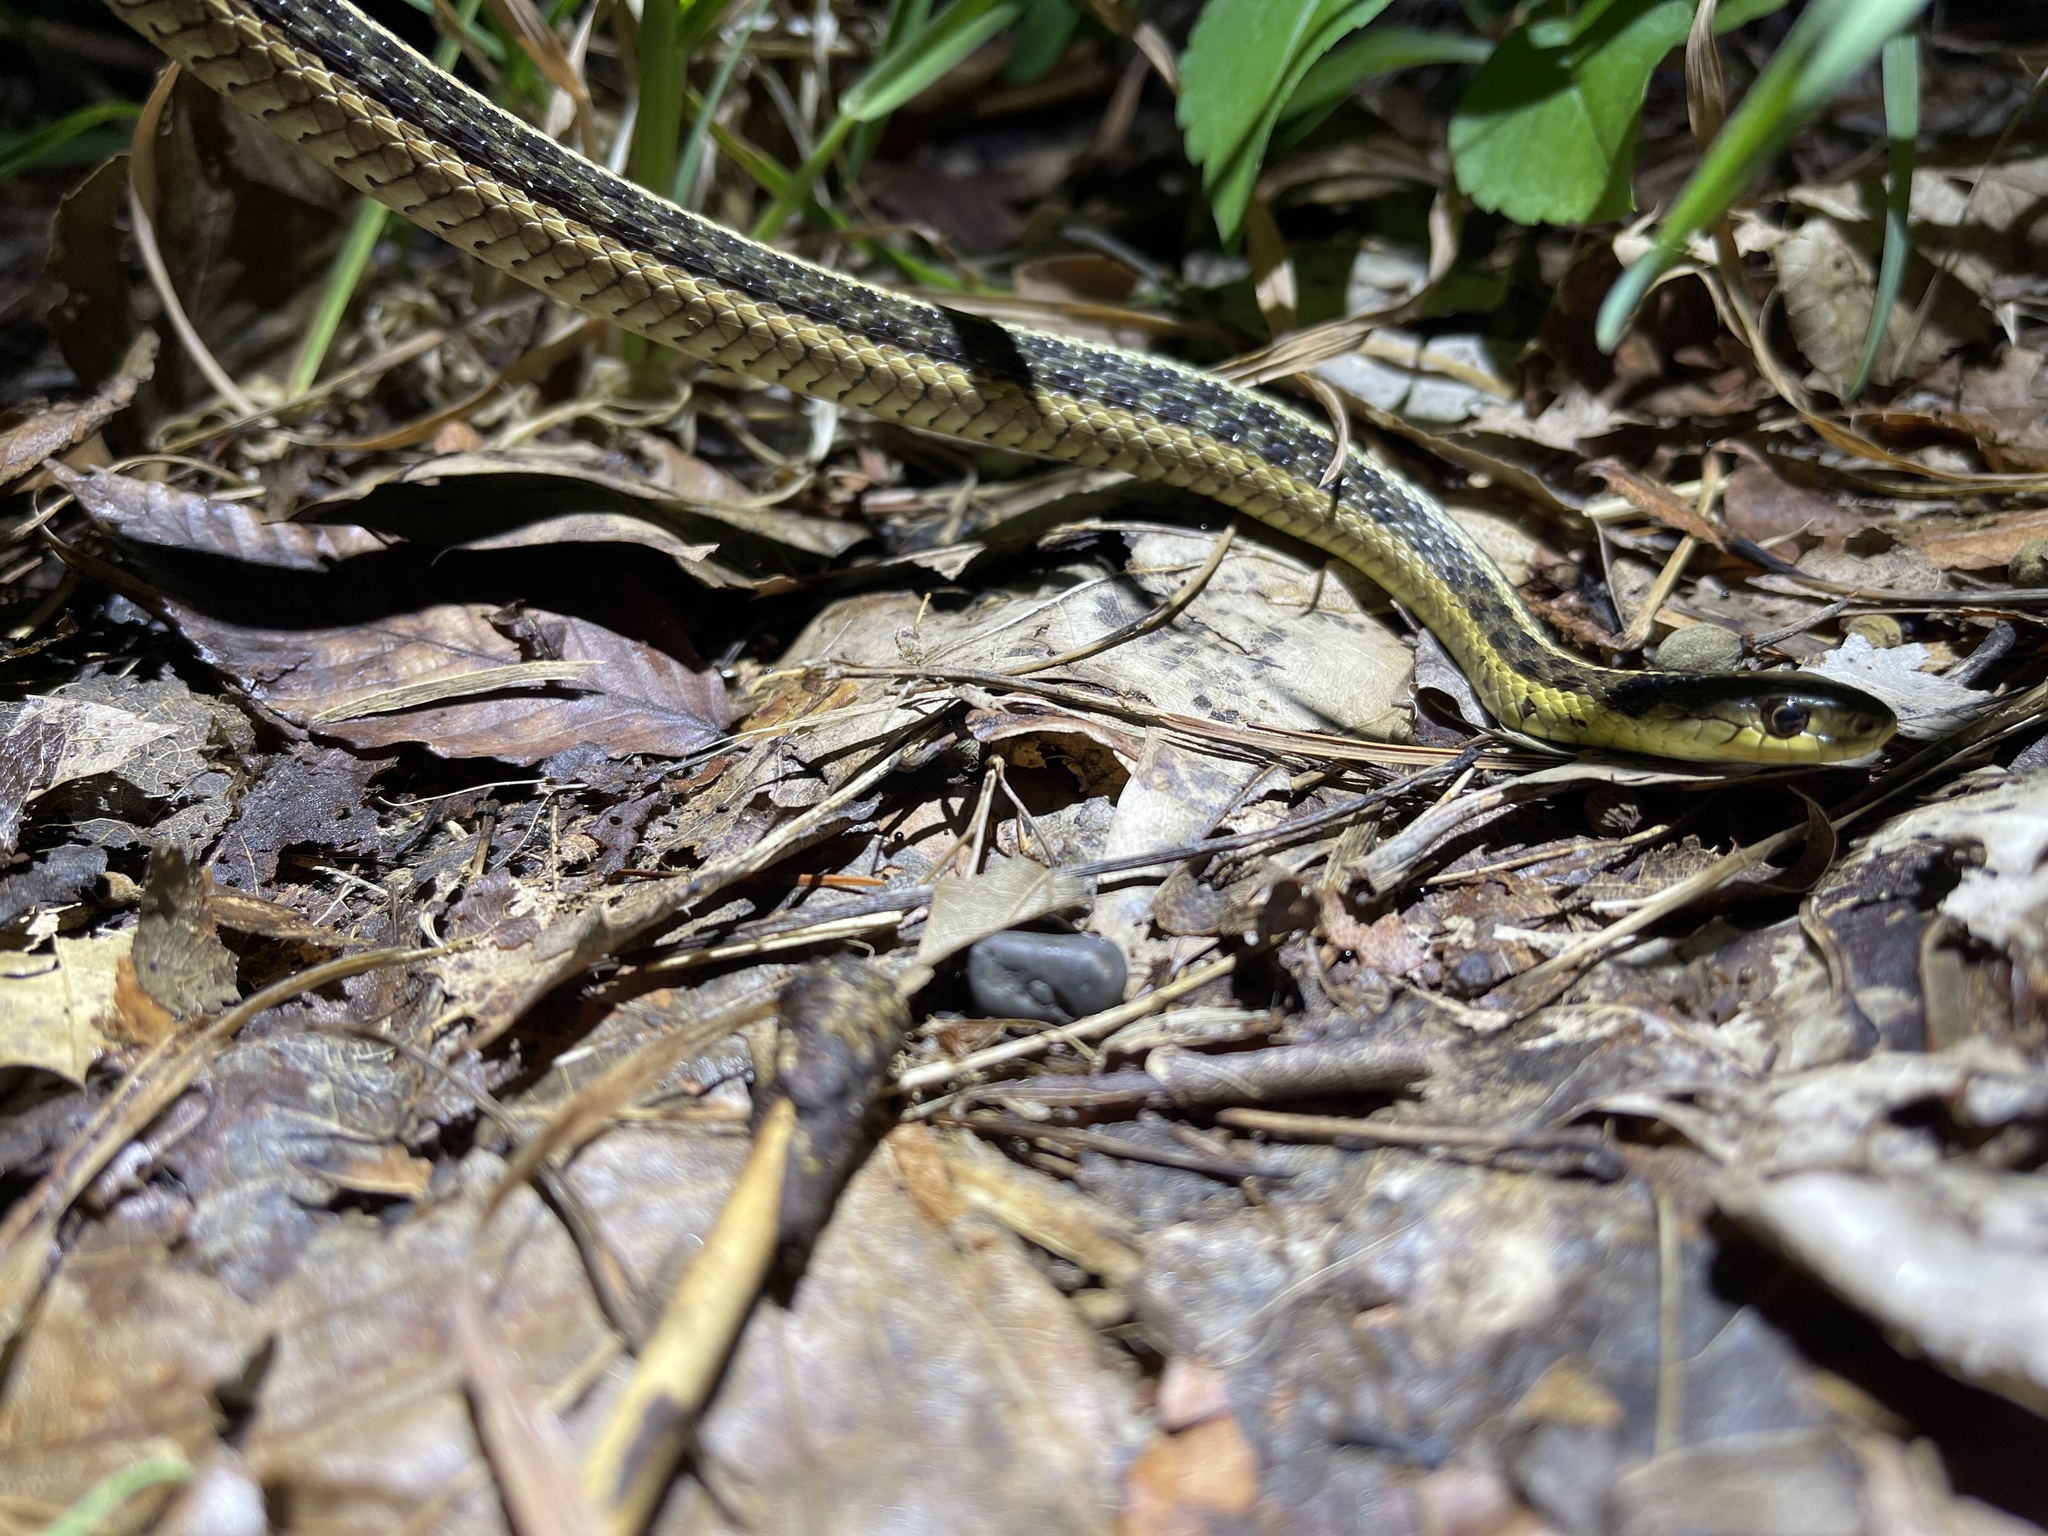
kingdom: Animalia
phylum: Chordata
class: Squamata
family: Colubridae
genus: Thamnophis
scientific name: Thamnophis sirtalis
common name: Common garter snake
